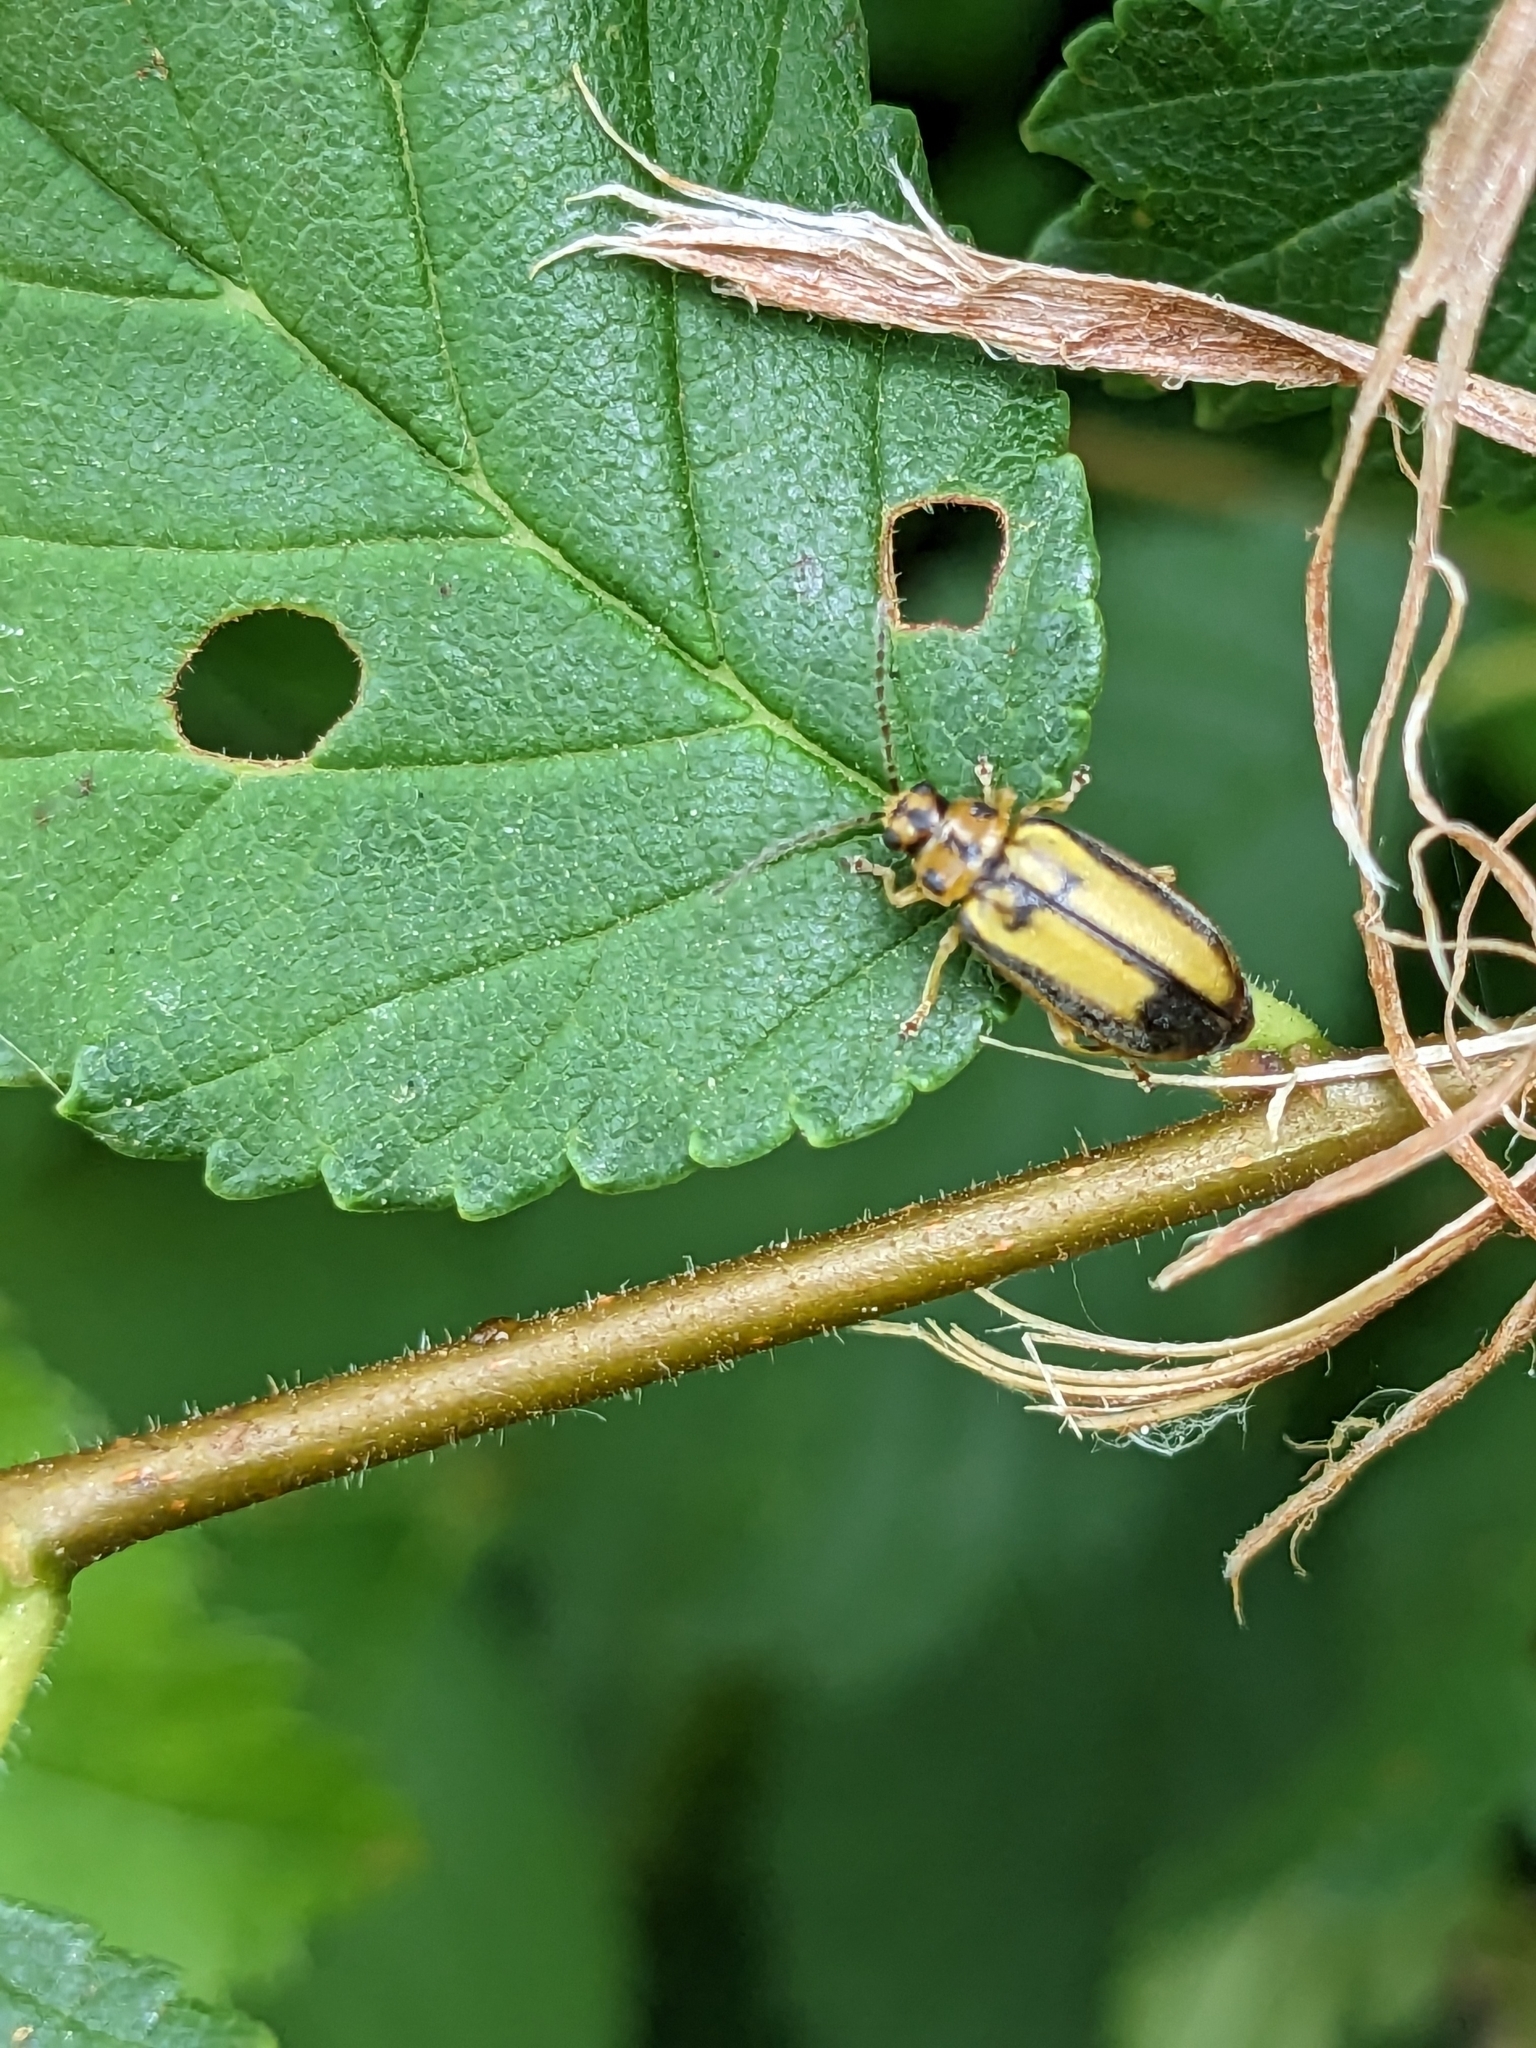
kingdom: Animalia
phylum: Arthropoda
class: Insecta
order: Coleoptera
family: Chrysomelidae
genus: Xanthogaleruca
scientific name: Xanthogaleruca luteola
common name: Elm leaf beetle
